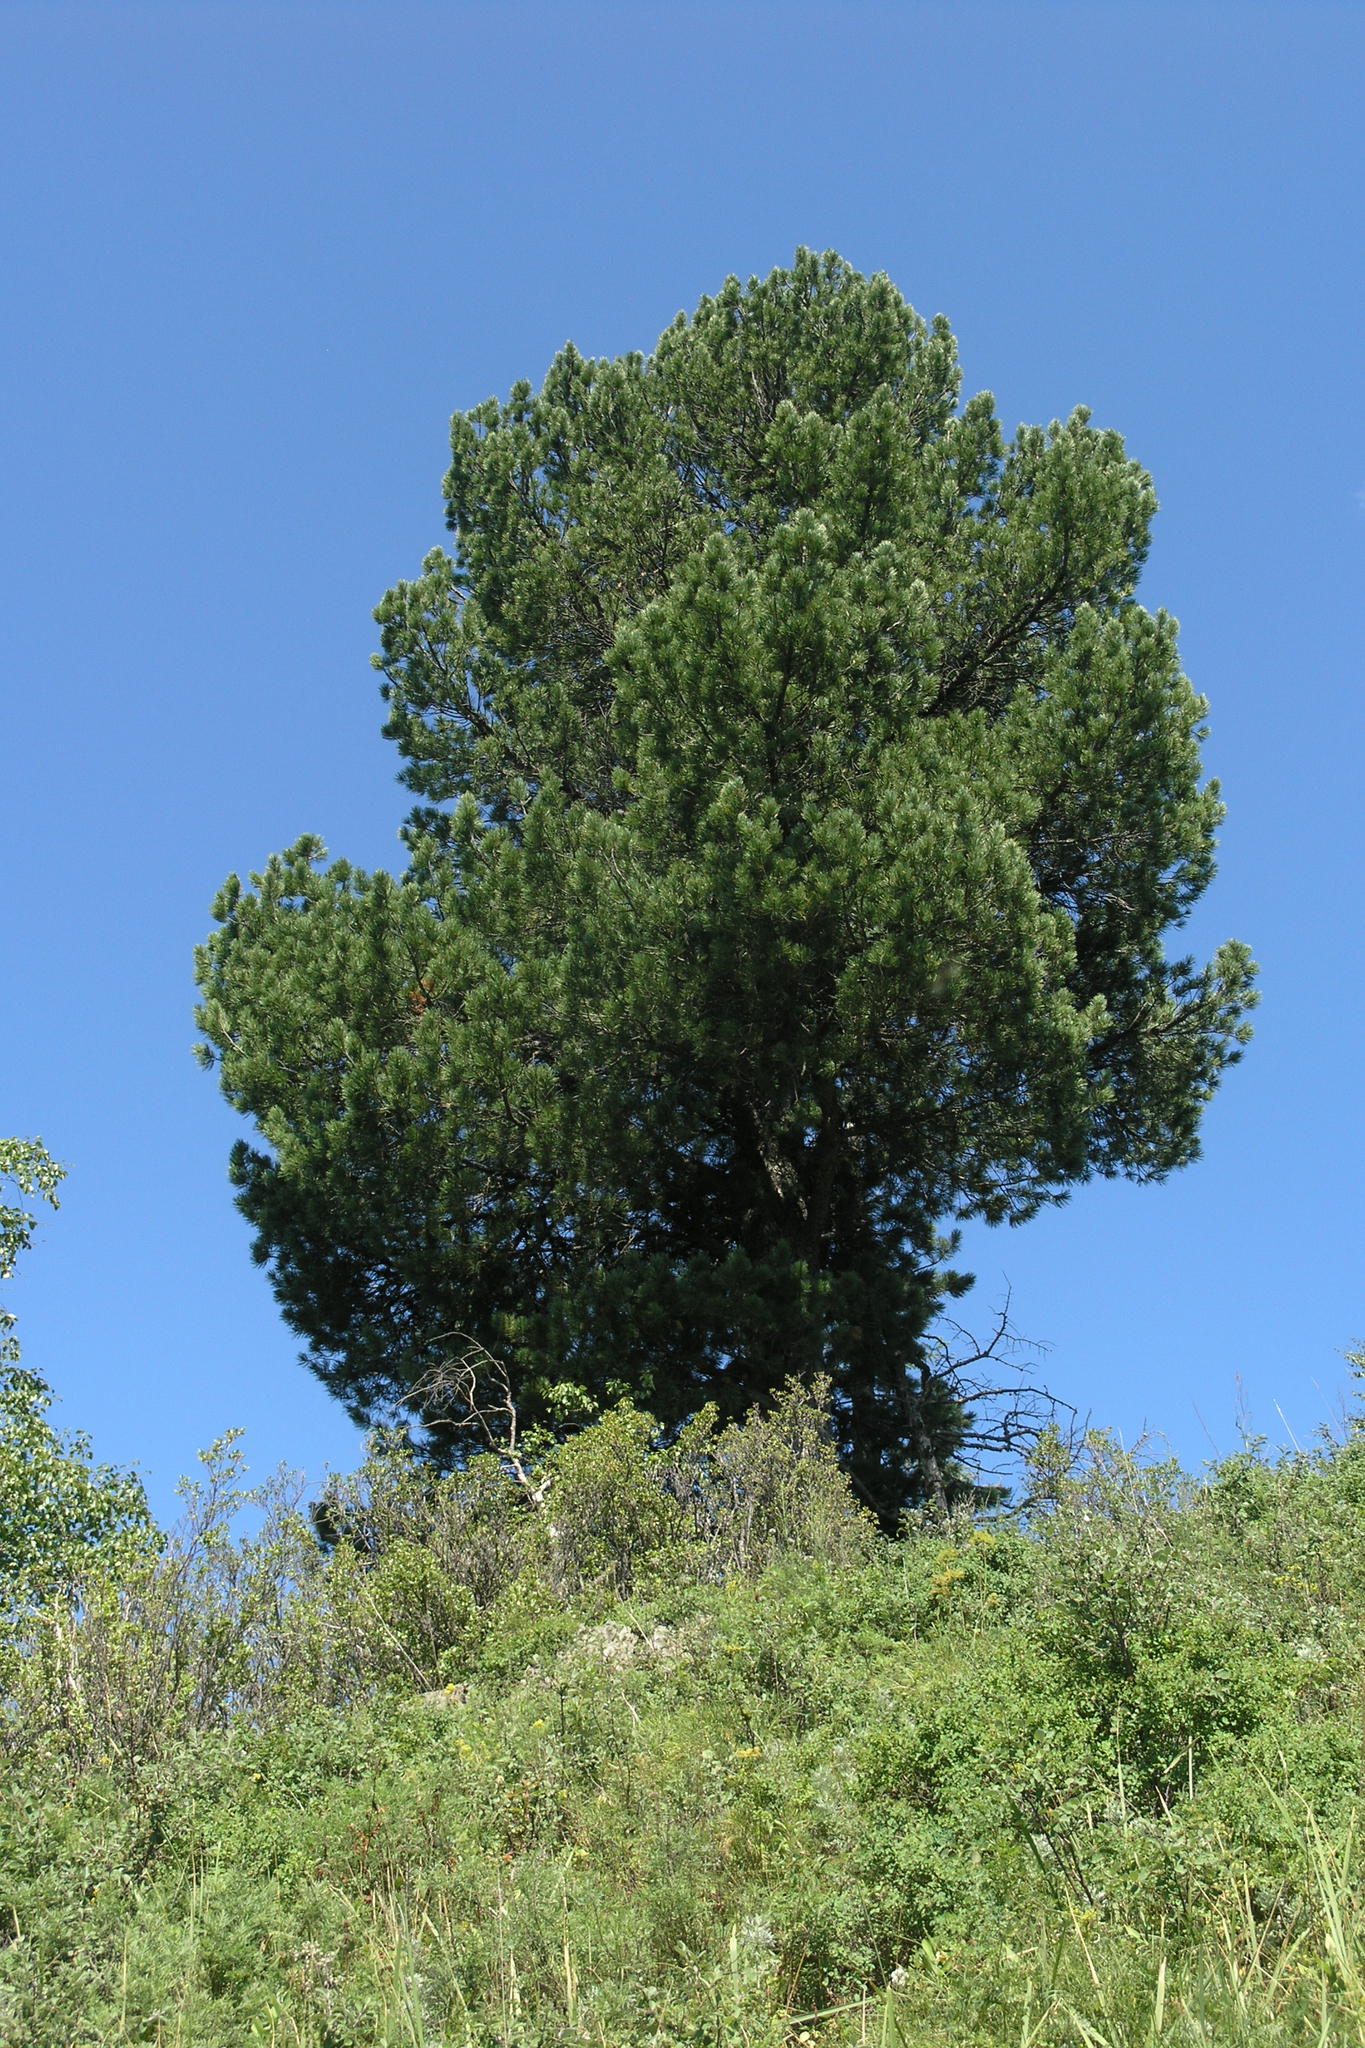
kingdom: Plantae
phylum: Tracheophyta
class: Pinopsida
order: Pinales
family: Pinaceae
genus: Pinus
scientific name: Pinus sibirica
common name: Siberian pine
